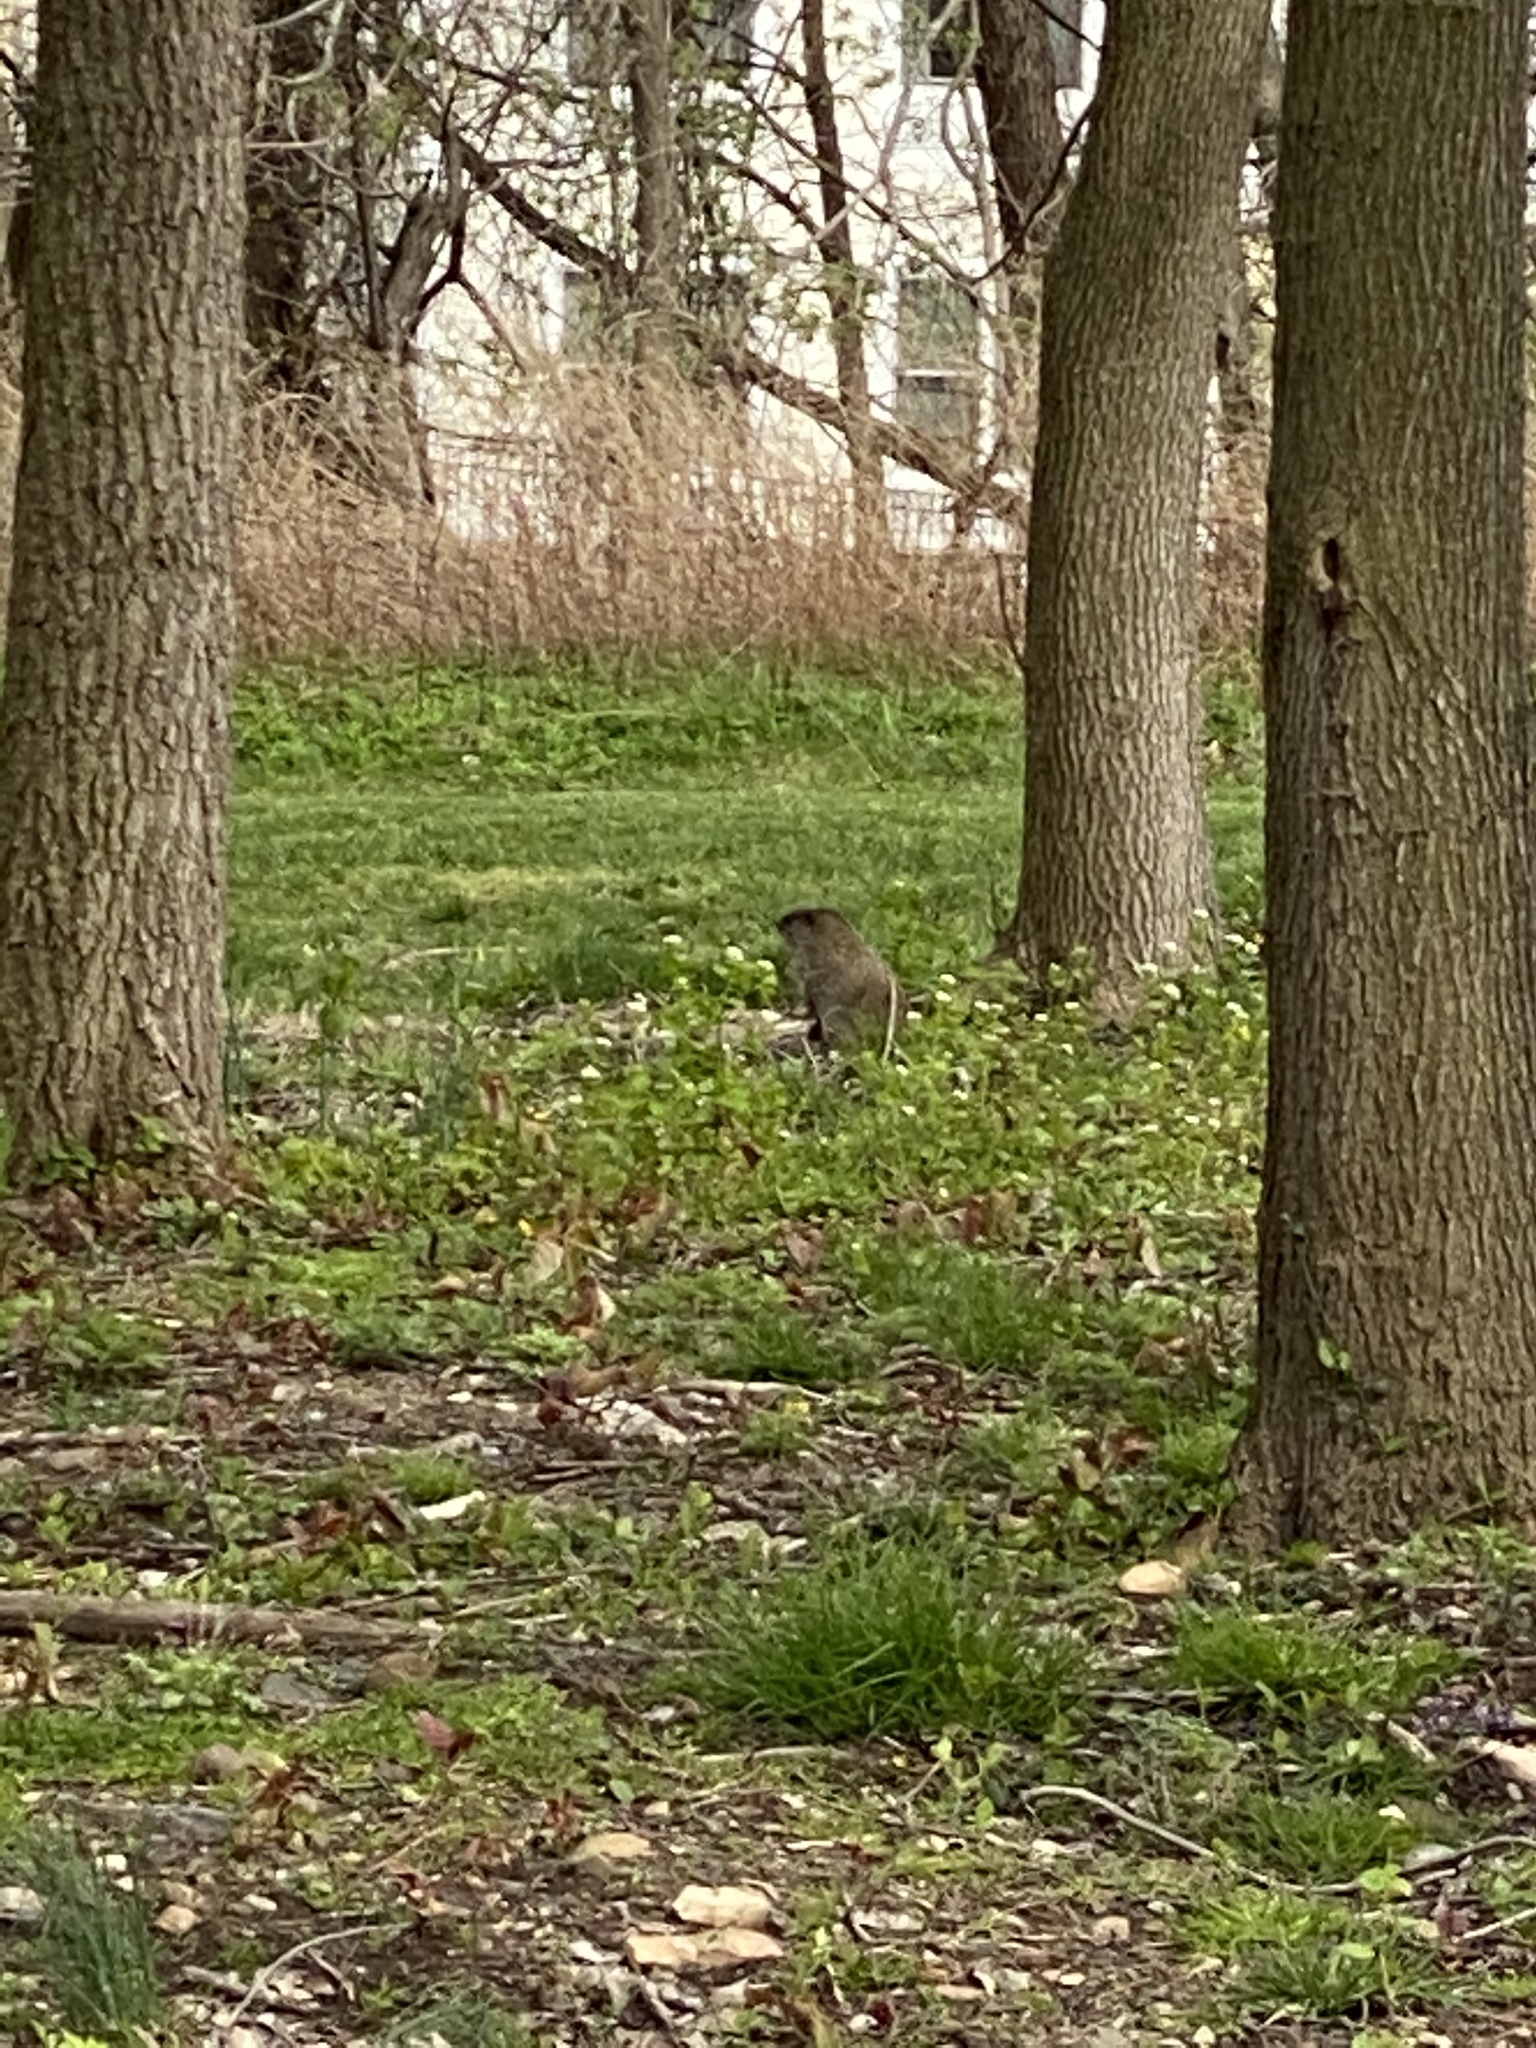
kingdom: Animalia
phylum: Chordata
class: Mammalia
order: Rodentia
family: Sciuridae
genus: Marmota
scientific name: Marmota monax
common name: Groundhog
